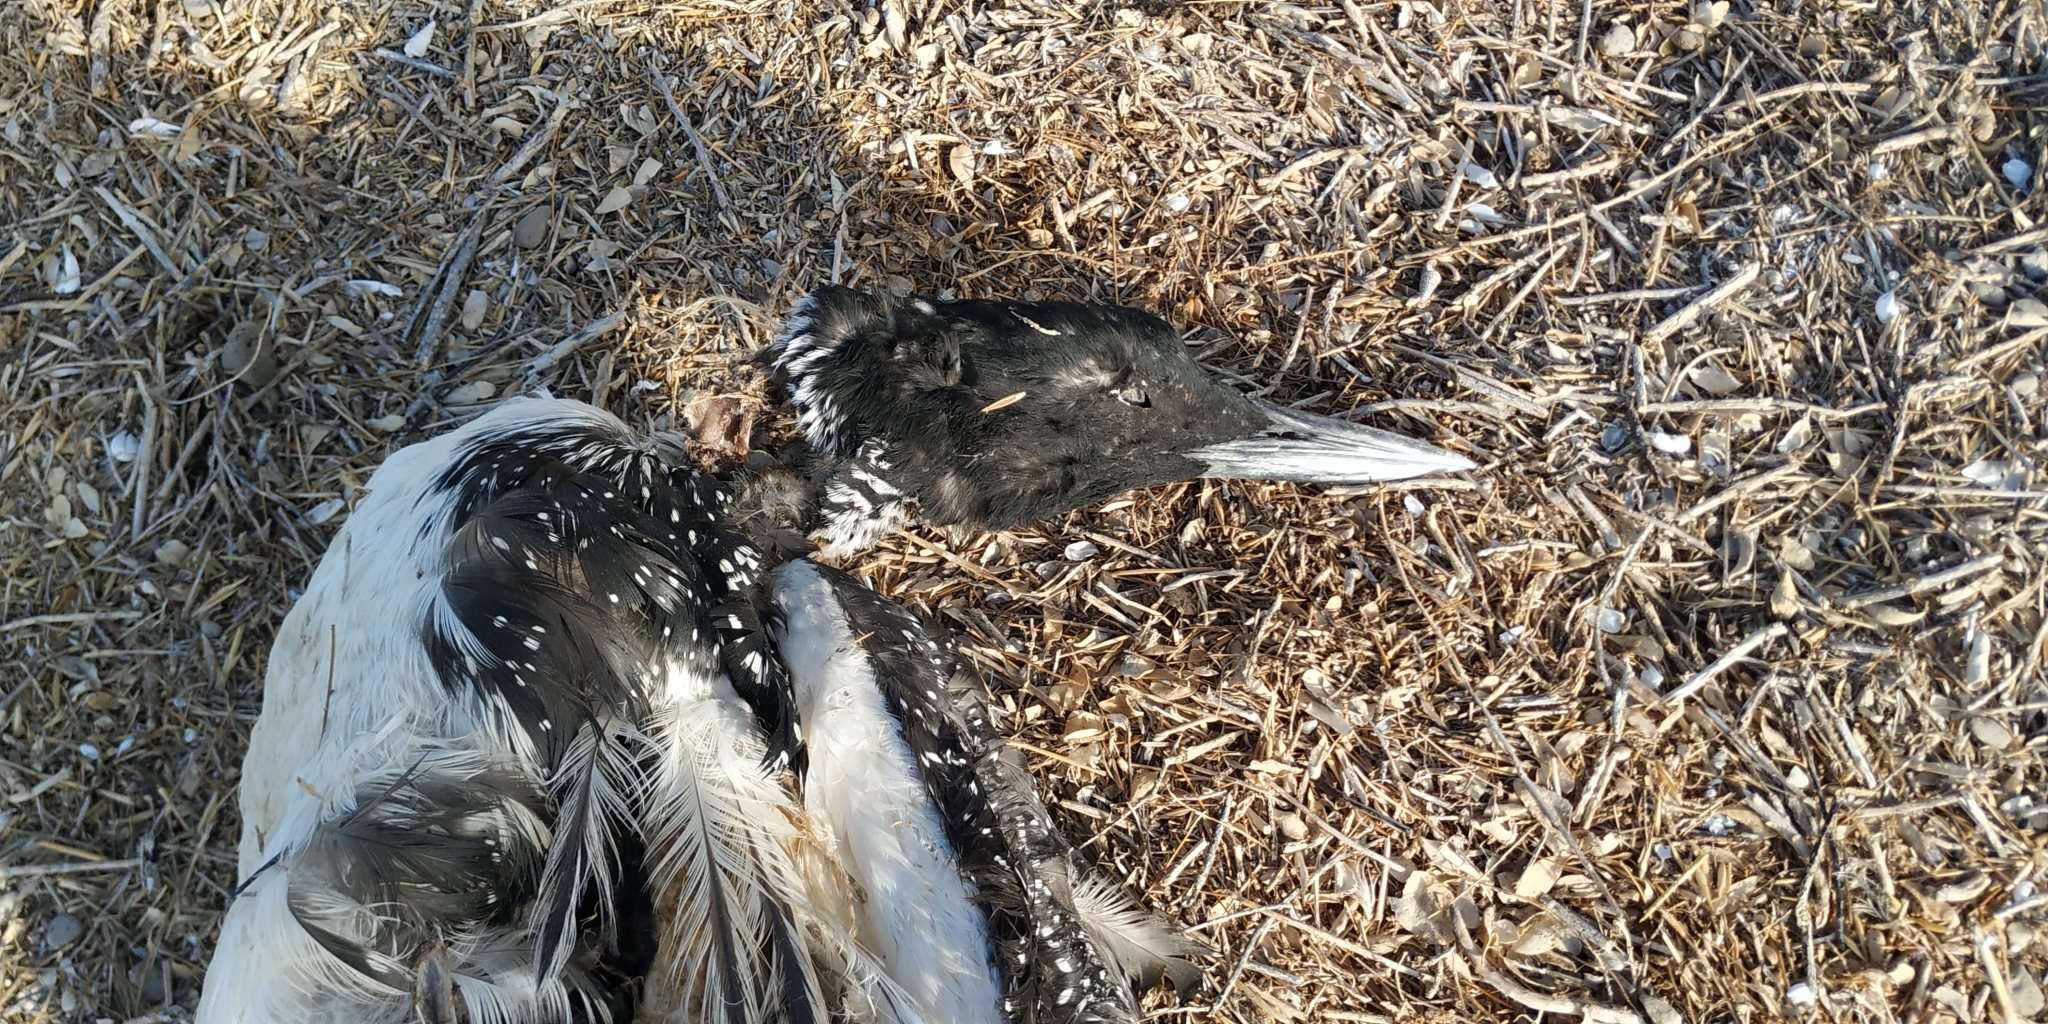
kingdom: Animalia
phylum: Chordata
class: Aves
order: Gaviiformes
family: Gaviidae
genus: Gavia
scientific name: Gavia immer
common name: Common loon
